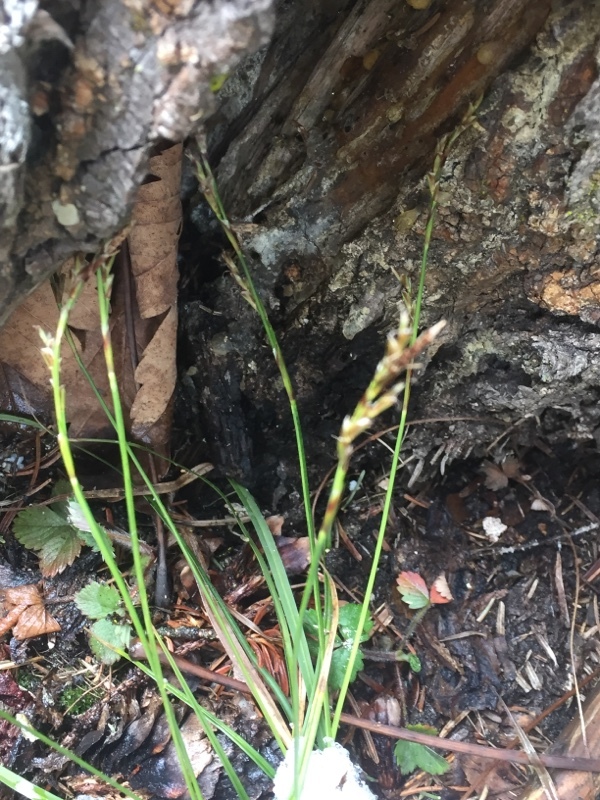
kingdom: Plantae
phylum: Tracheophyta
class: Liliopsida
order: Poales
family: Cyperaceae
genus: Carex
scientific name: Carex digitata
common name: Fingered sedge
